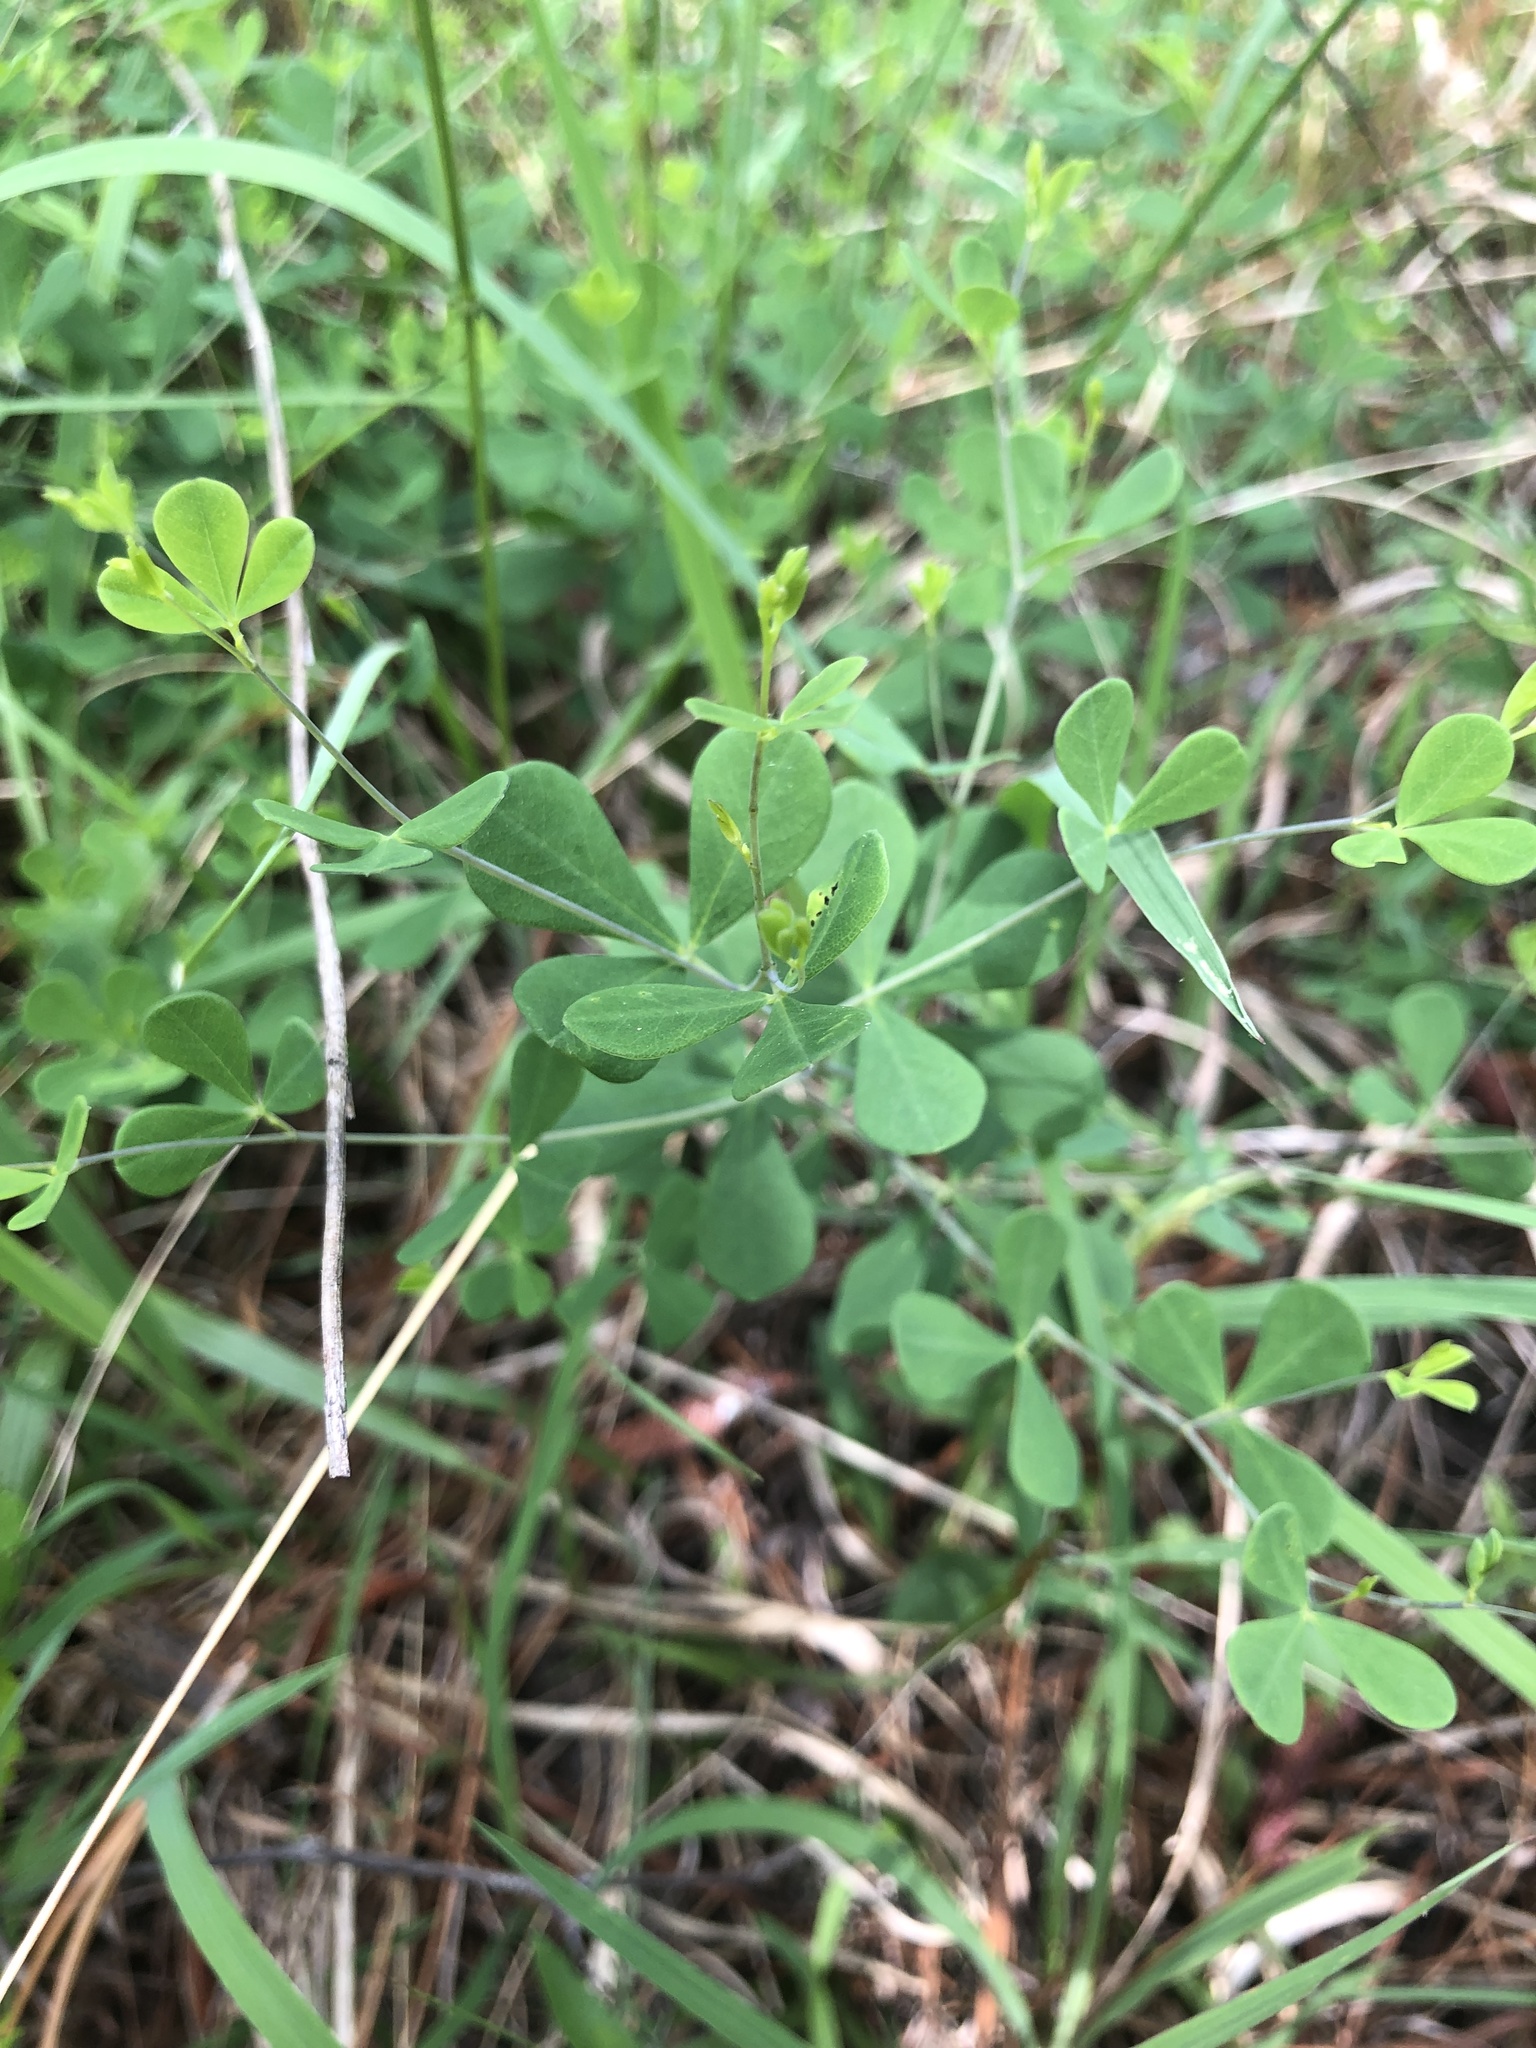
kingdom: Plantae
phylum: Tracheophyta
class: Magnoliopsida
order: Fabales
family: Fabaceae
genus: Baptisia
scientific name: Baptisia tinctoria
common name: Wild indigo
